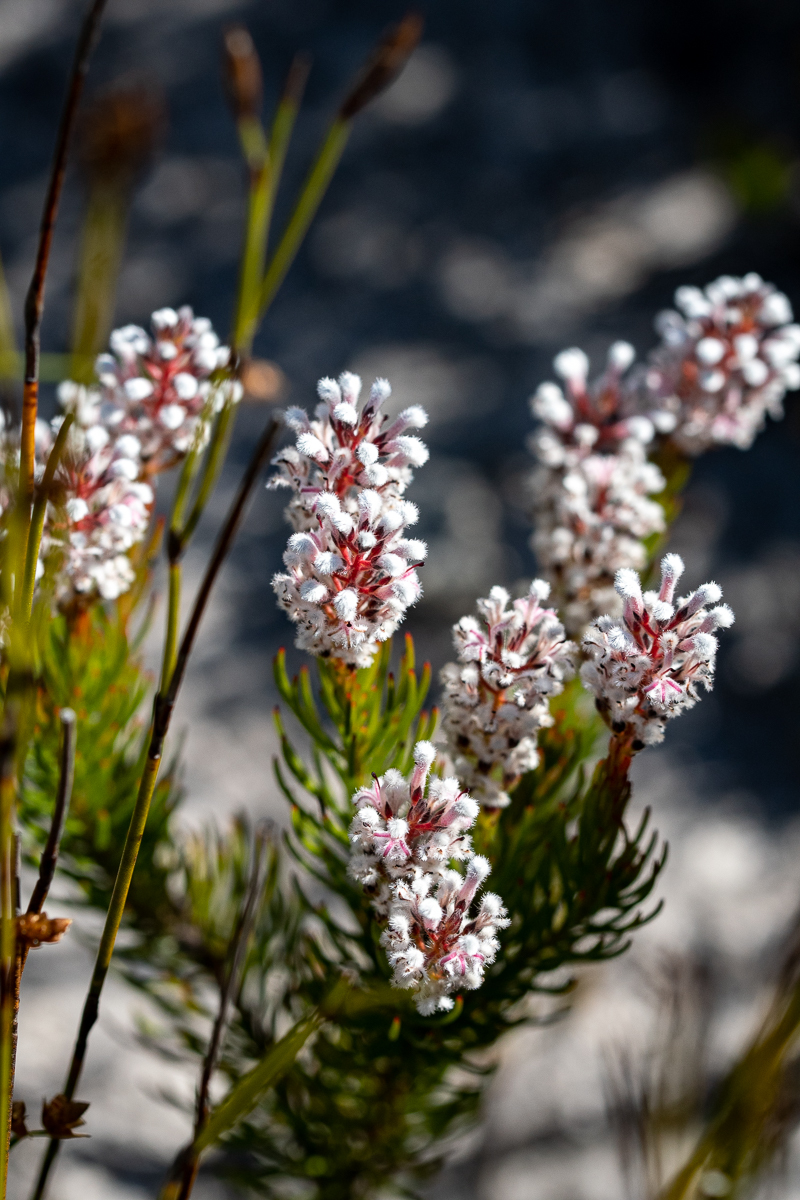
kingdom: Plantae
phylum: Tracheophyta
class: Magnoliopsida
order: Proteales
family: Proteaceae
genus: Spatalla
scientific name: Spatalla mollis
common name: Woolly spoon
